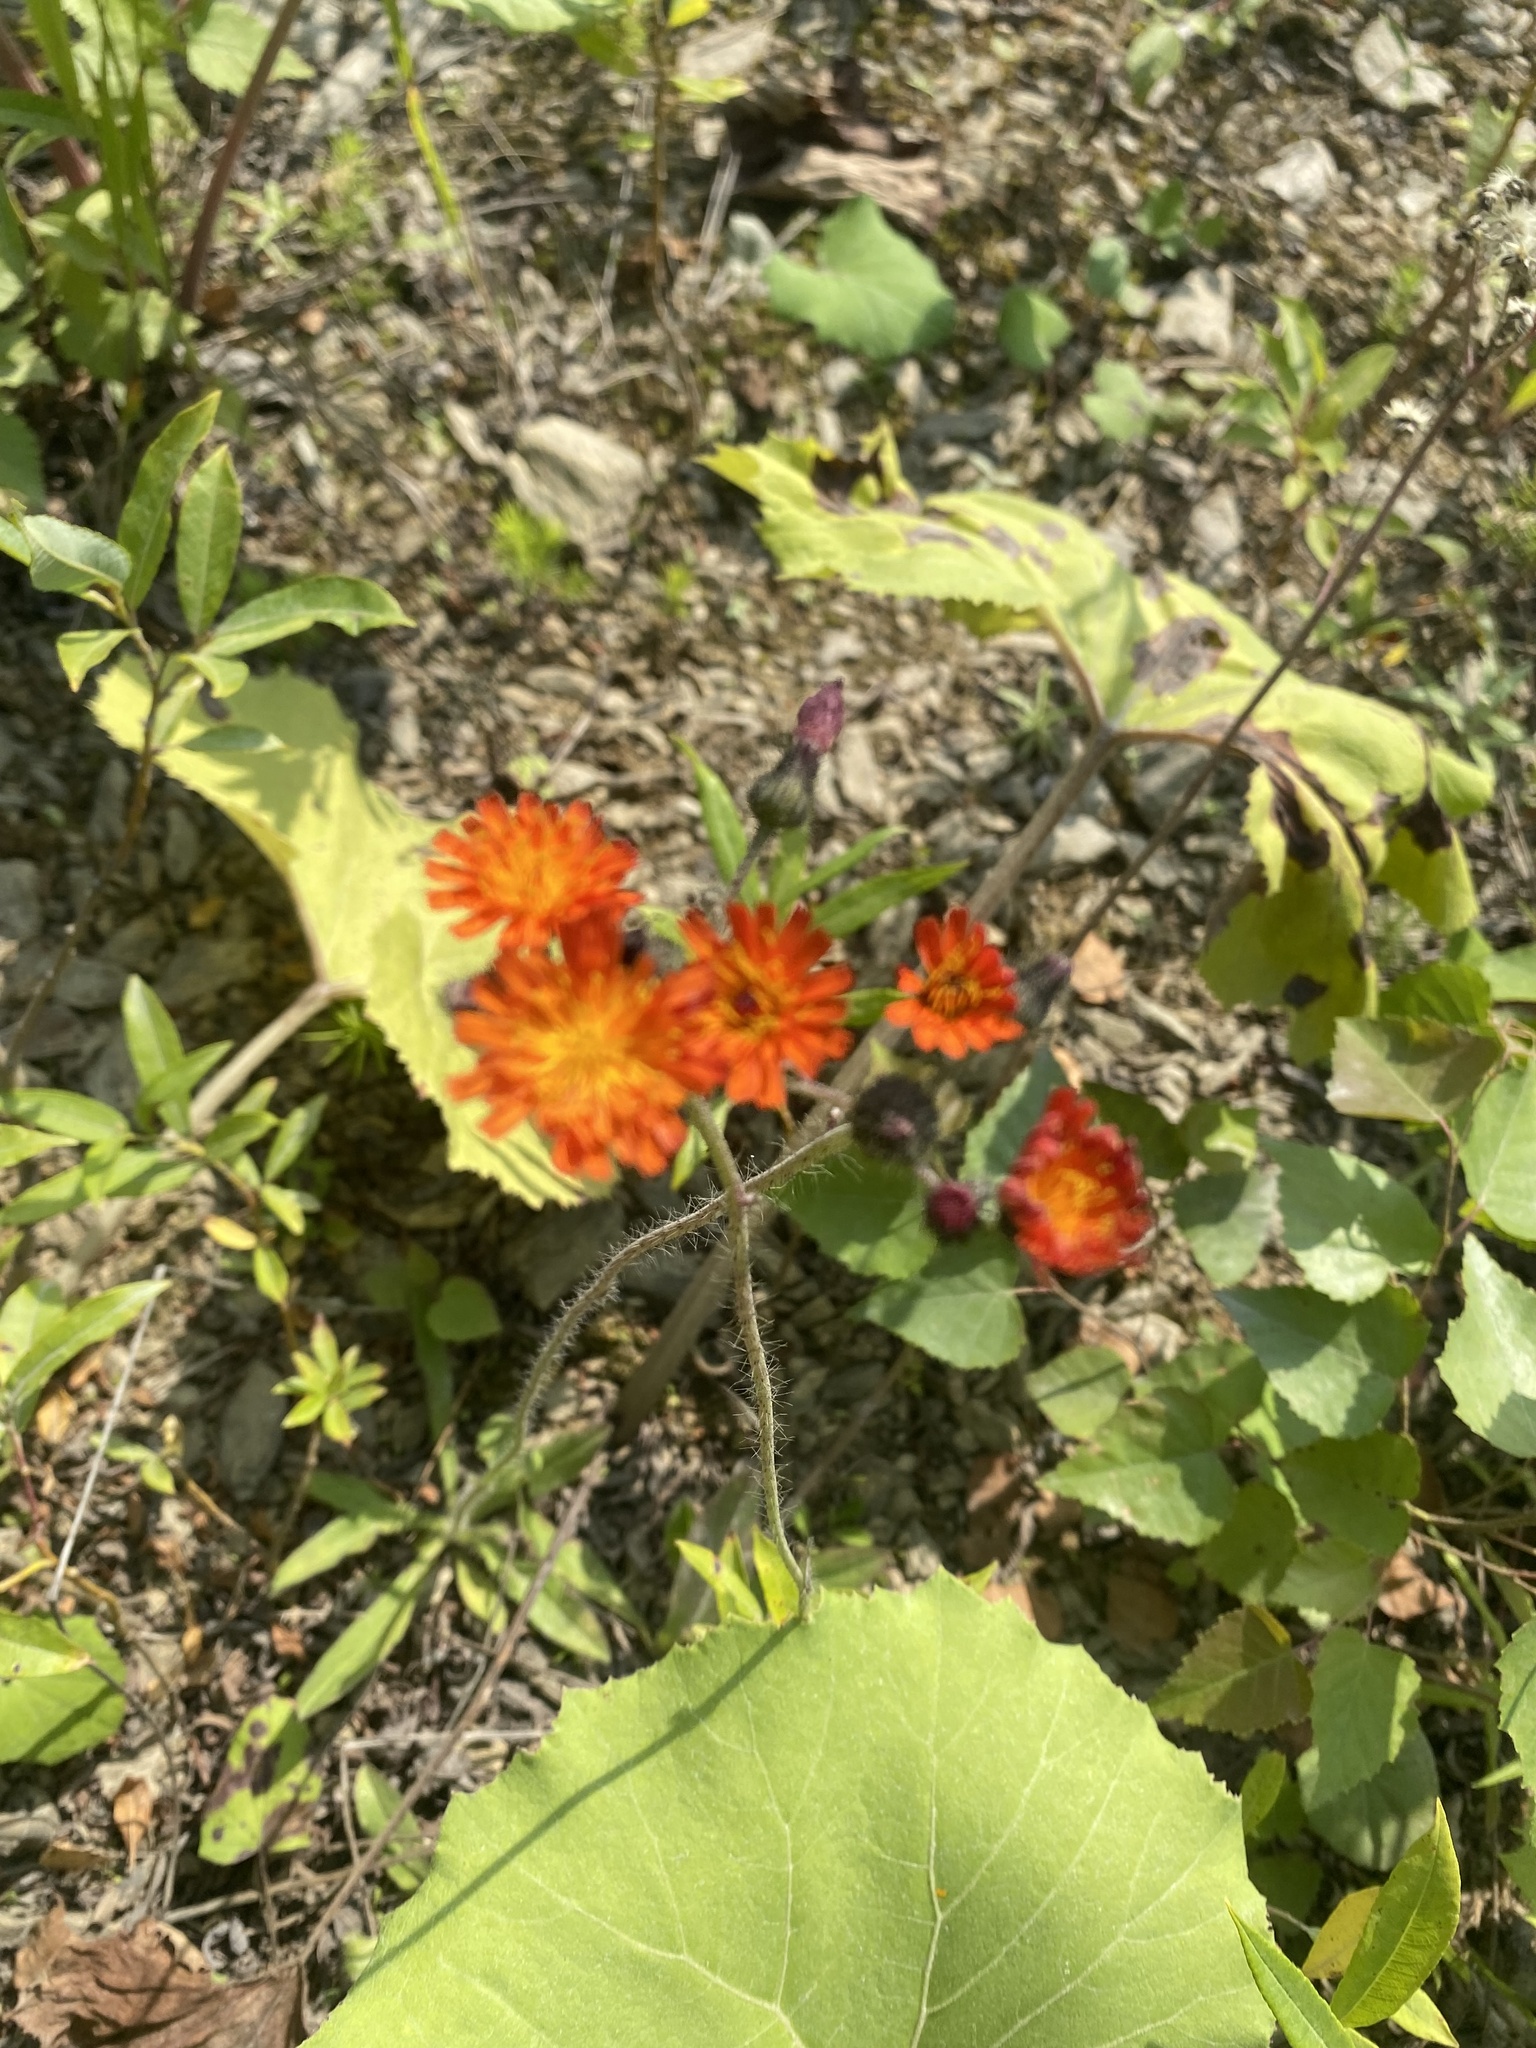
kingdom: Plantae
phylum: Tracheophyta
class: Magnoliopsida
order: Asterales
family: Asteraceae
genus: Pilosella
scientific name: Pilosella aurantiaca
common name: Fox-and-cubs
